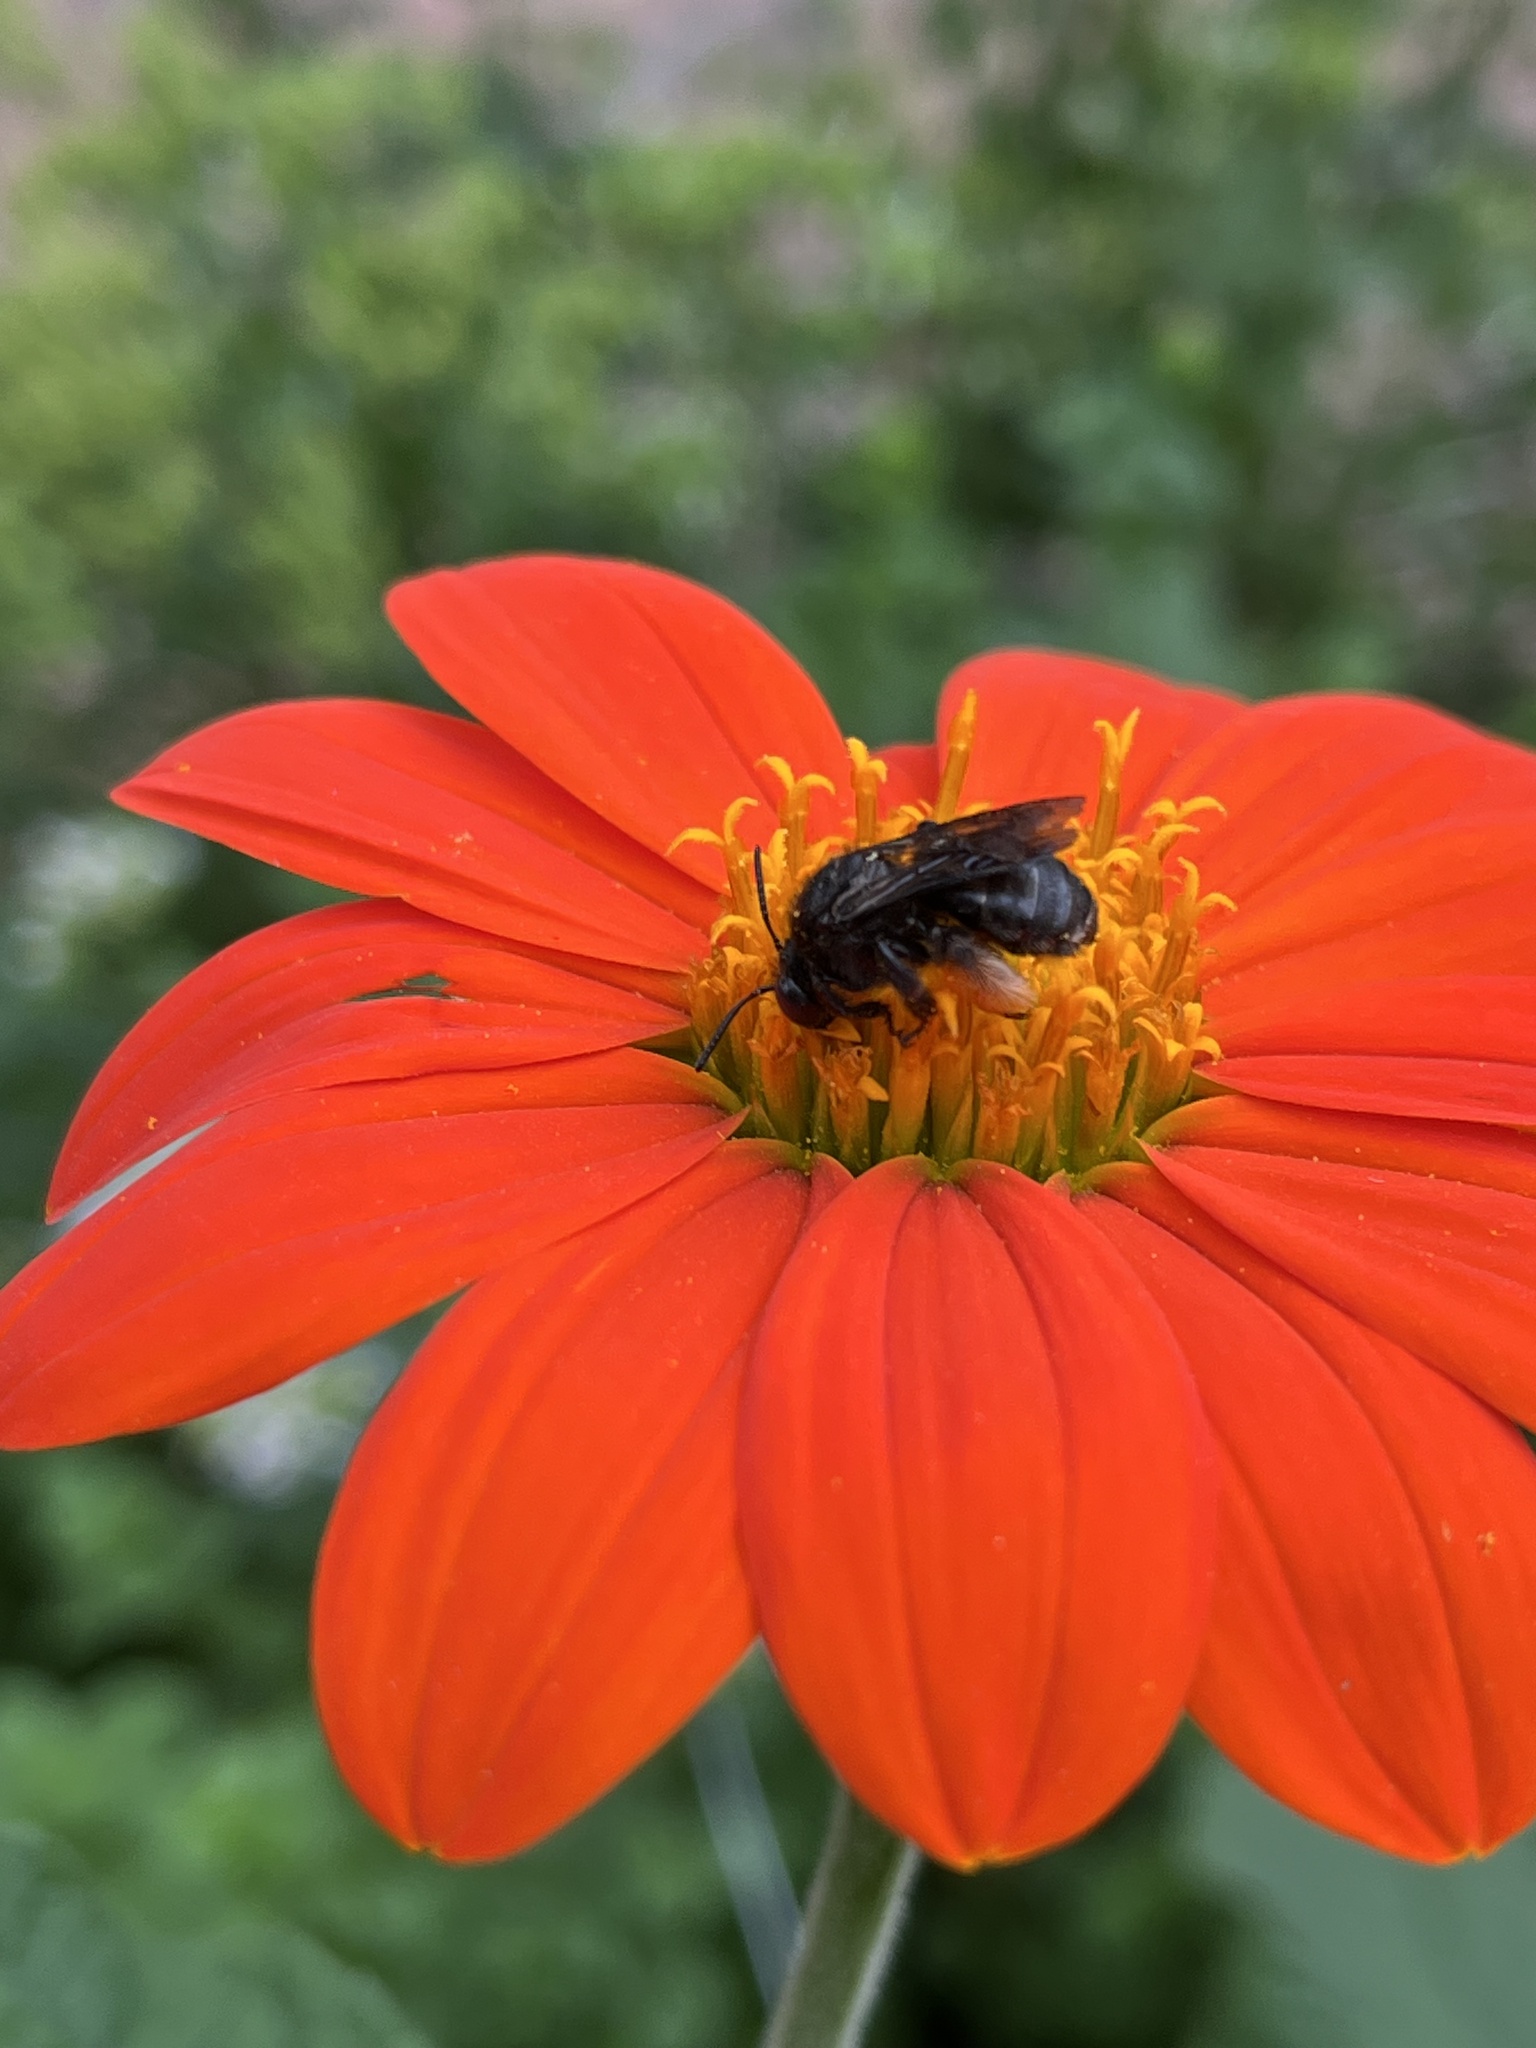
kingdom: Animalia
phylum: Arthropoda
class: Insecta
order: Hymenoptera
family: Apidae
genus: Melissodes
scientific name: Melissodes bimaculatus
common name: Two-spotted long-horned bee
